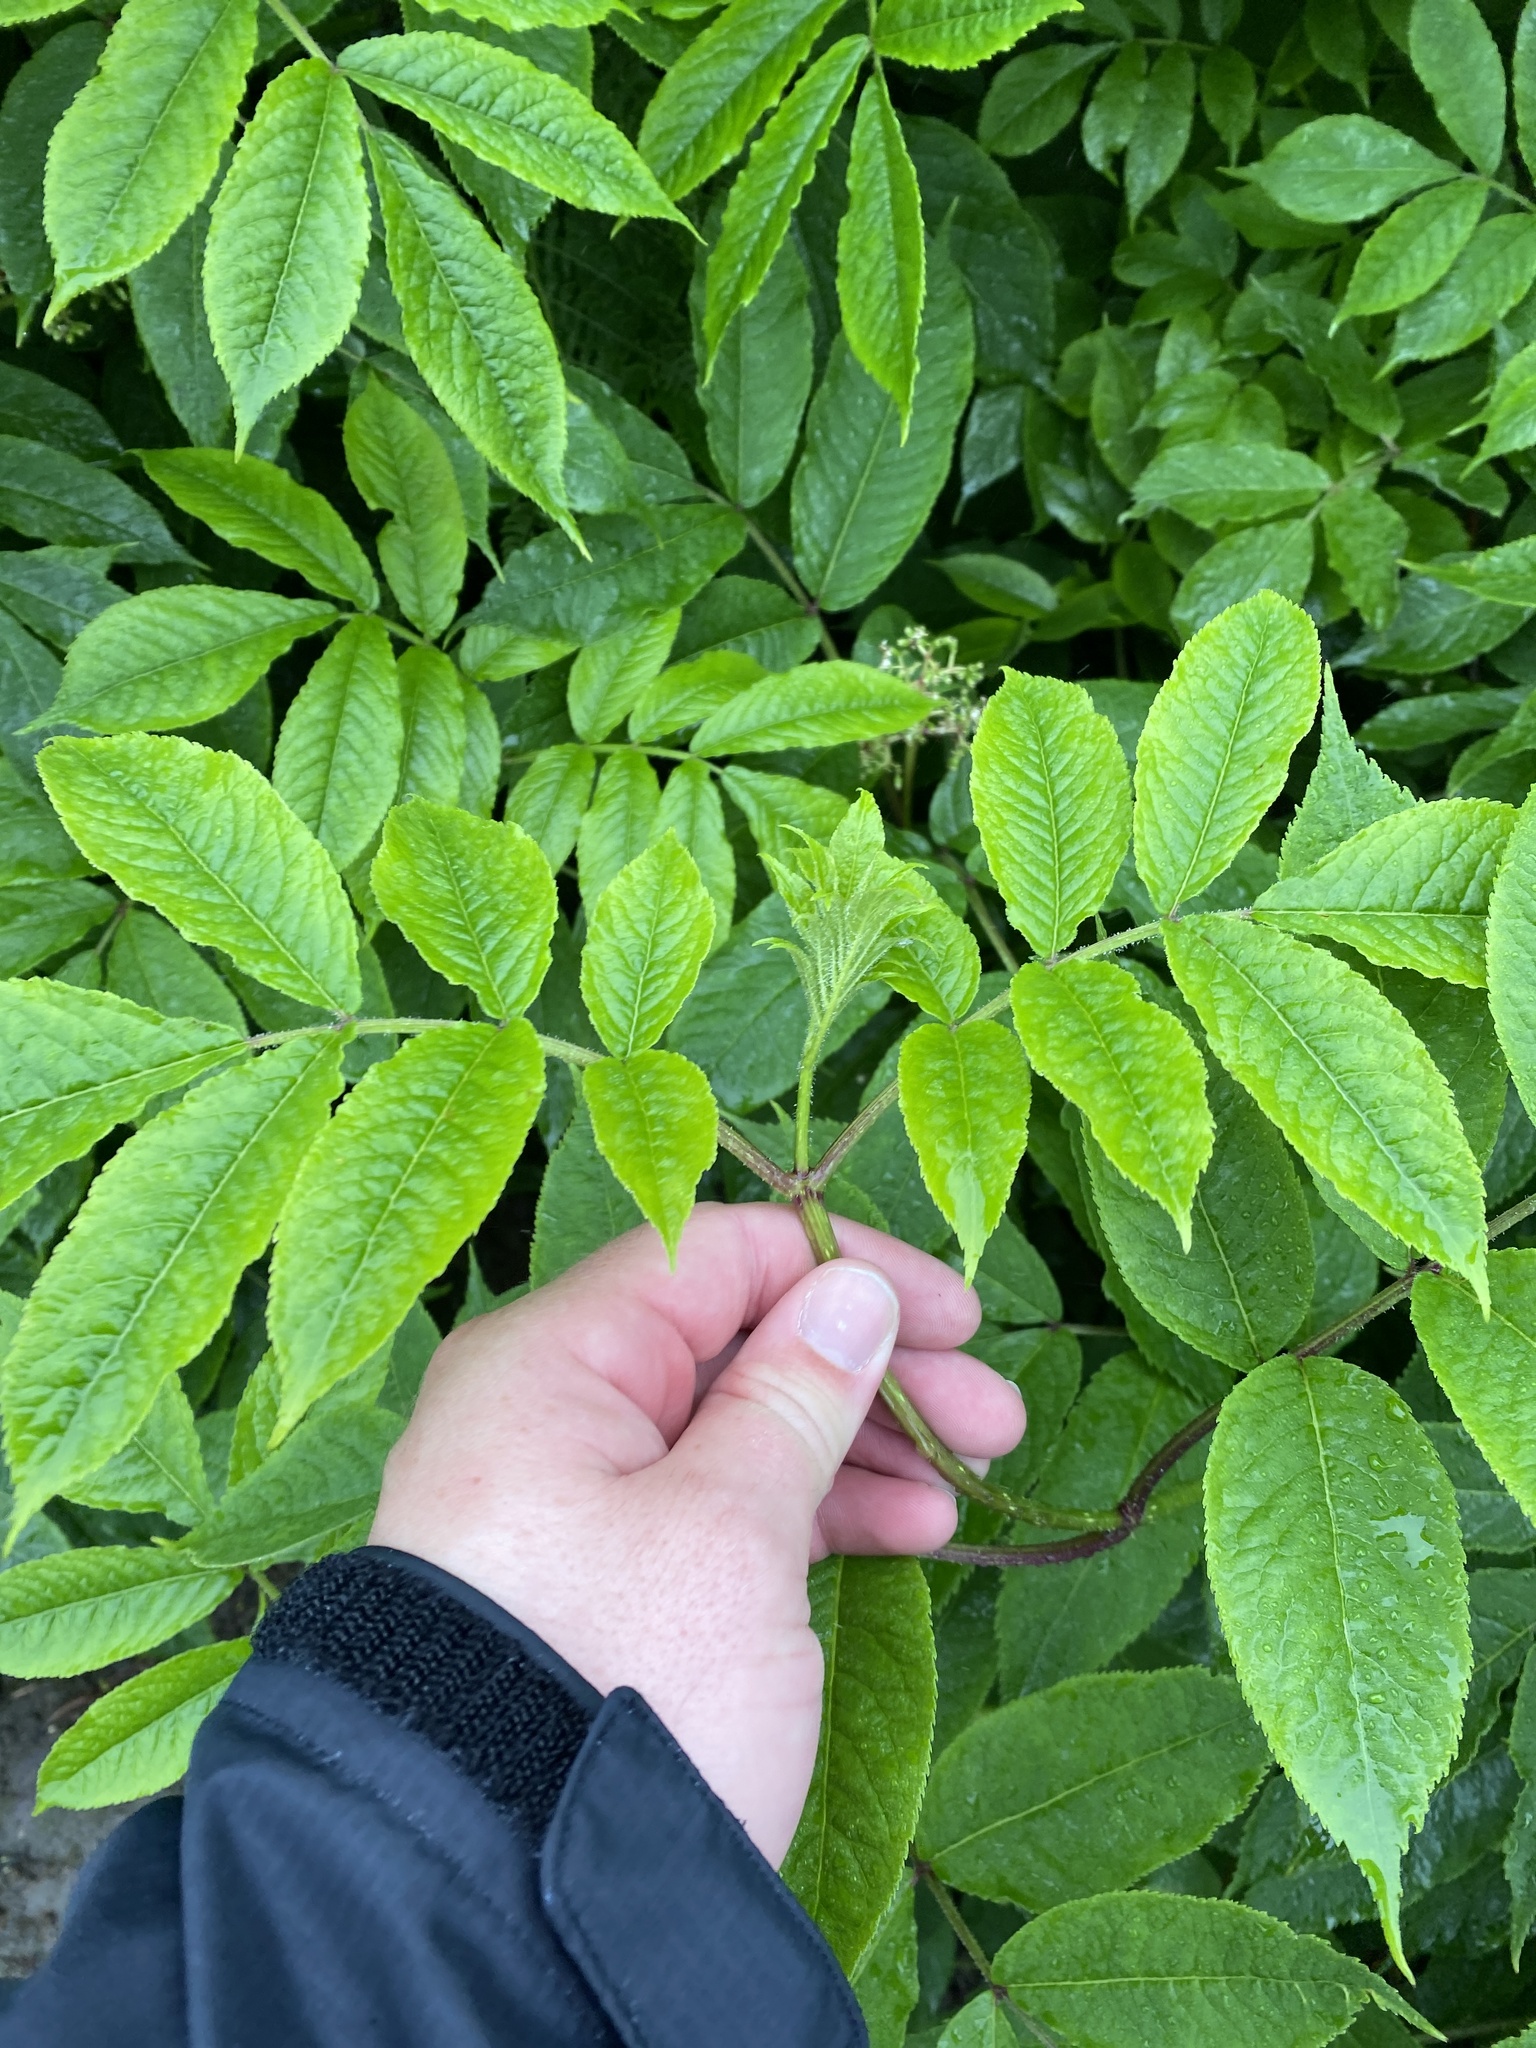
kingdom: Plantae
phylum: Tracheophyta
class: Magnoliopsida
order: Dipsacales
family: Viburnaceae
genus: Sambucus
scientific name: Sambucus racemosa
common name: Red-berried elder
